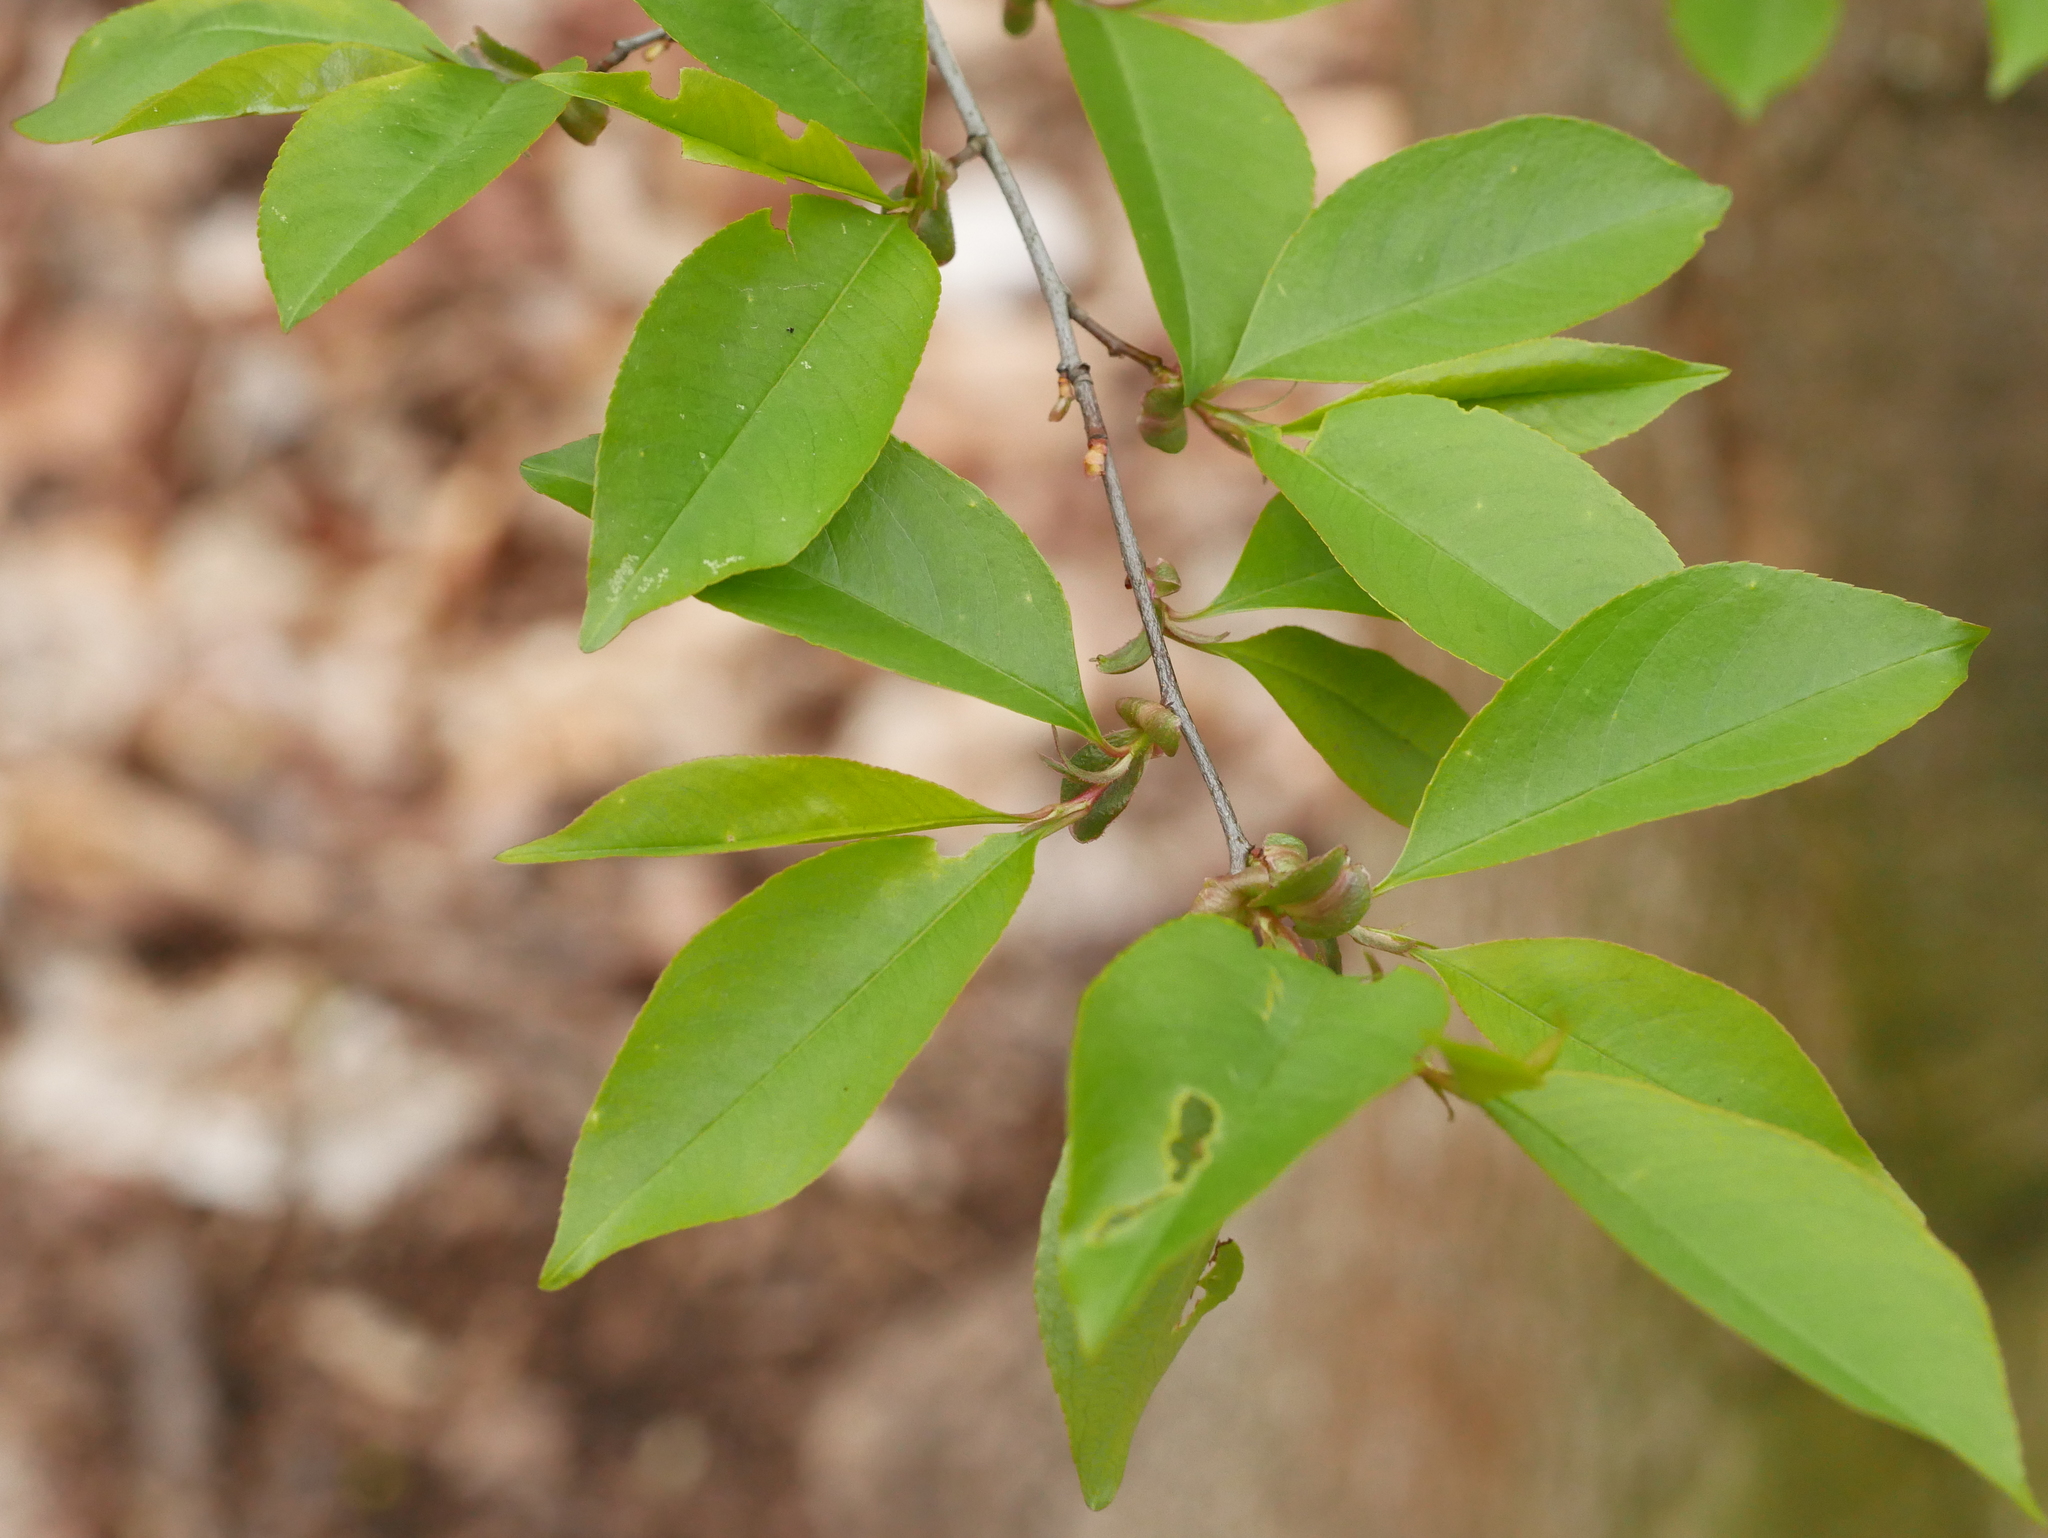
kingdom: Plantae
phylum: Tracheophyta
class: Magnoliopsida
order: Rosales
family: Rosaceae
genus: Prunus
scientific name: Prunus serotina
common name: Black cherry
